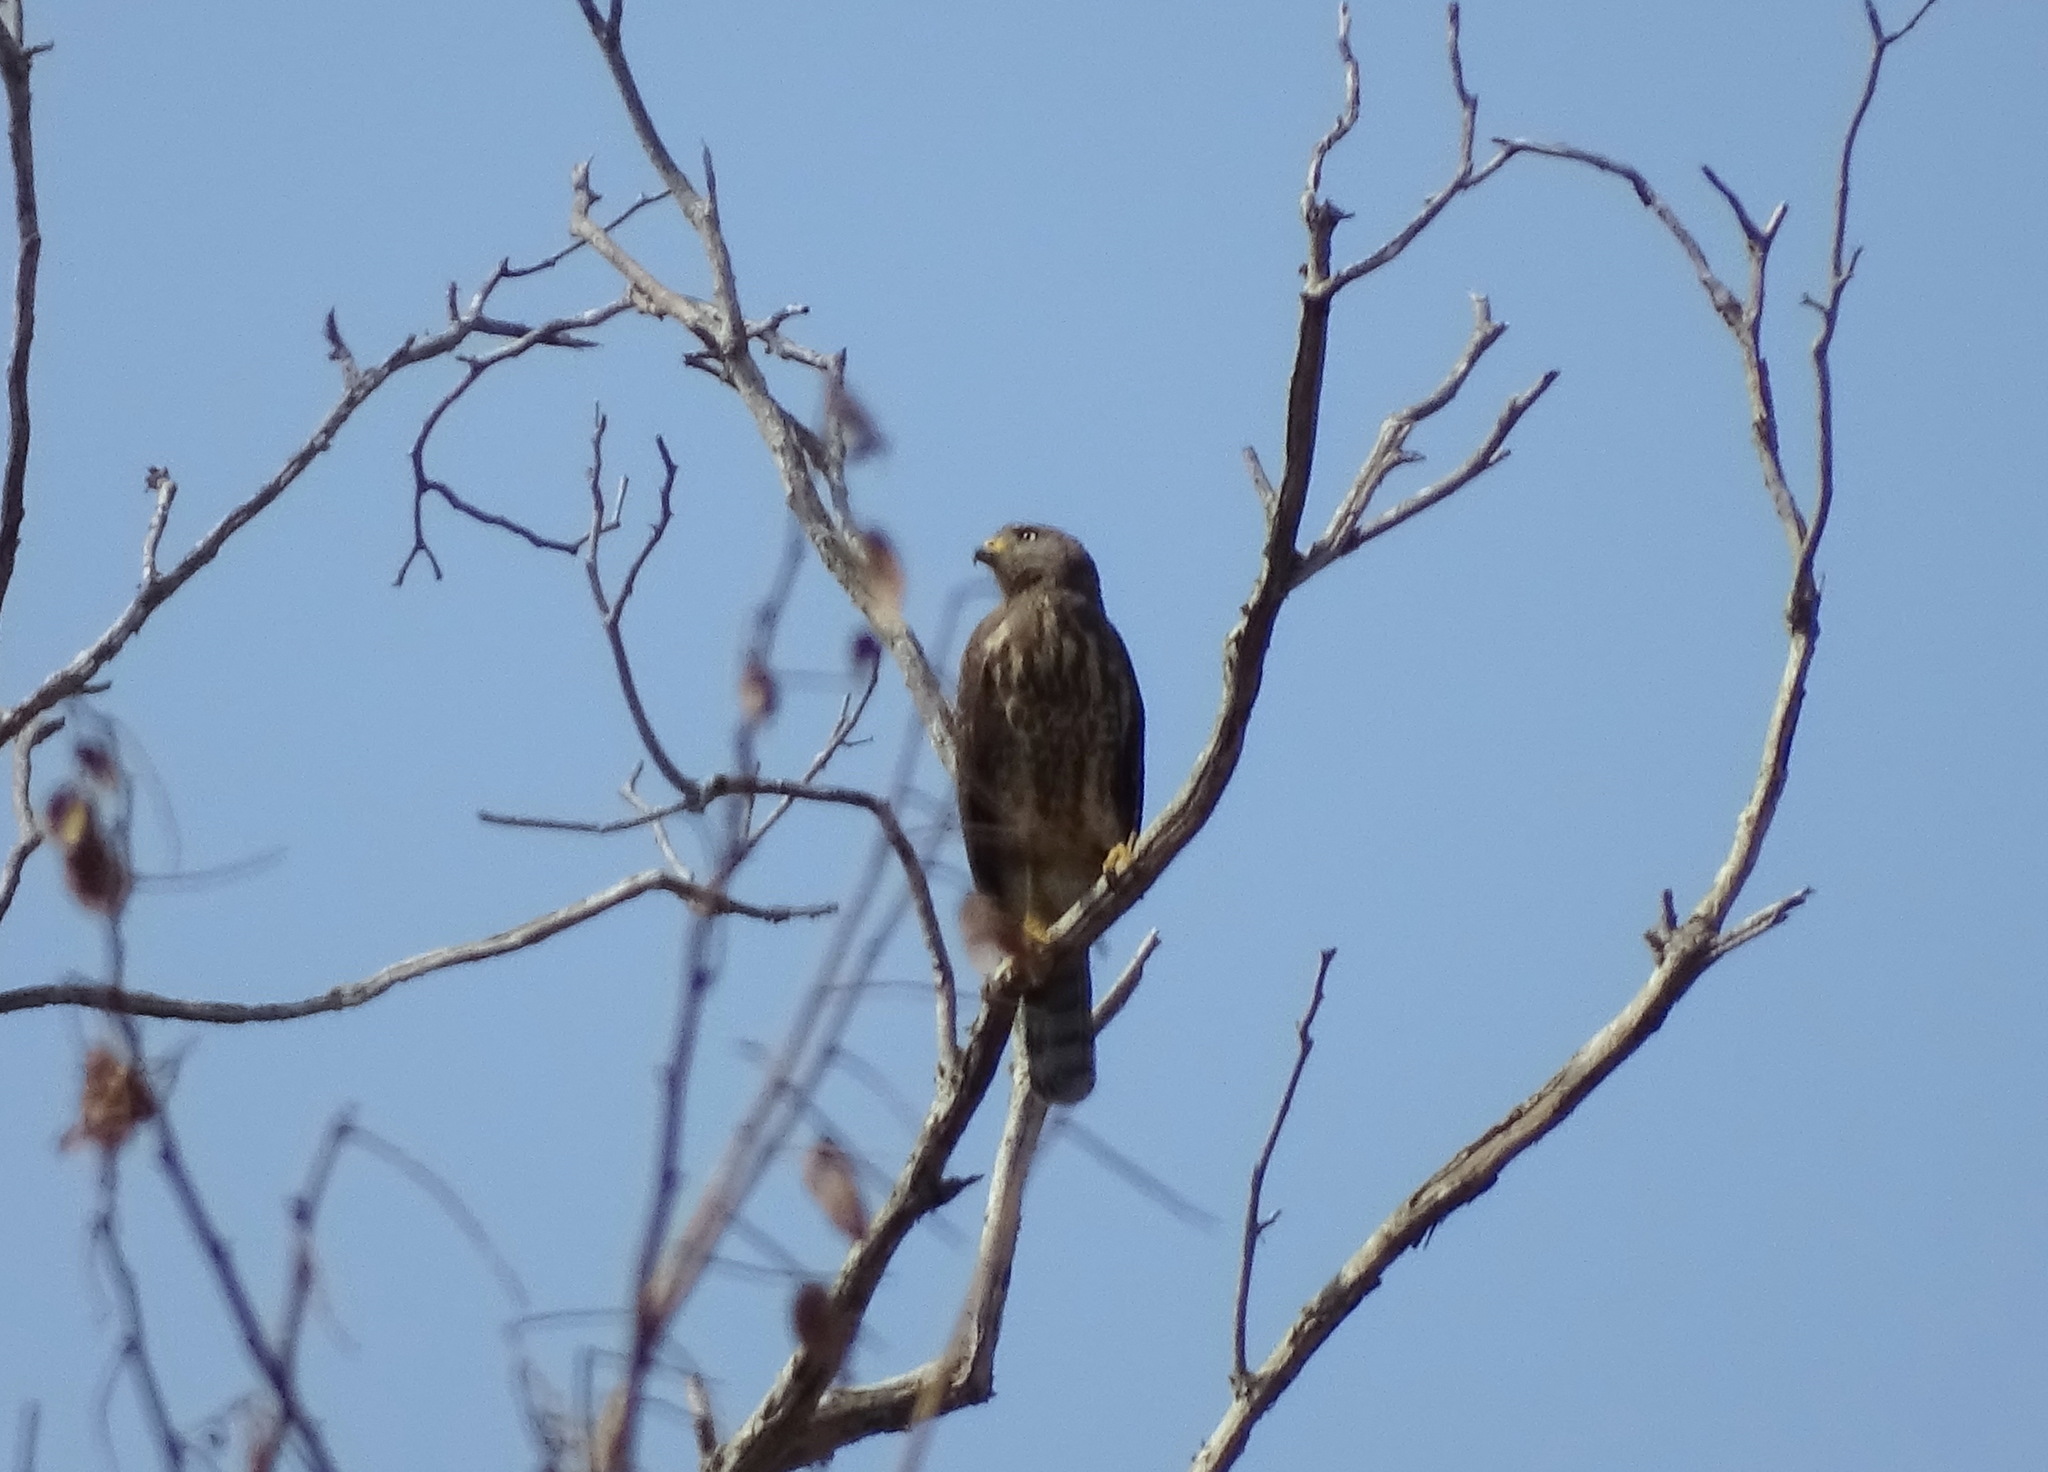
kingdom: Animalia
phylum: Chordata
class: Aves
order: Accipitriformes
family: Accipitridae
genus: Rupornis
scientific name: Rupornis magnirostris
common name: Roadside hawk
